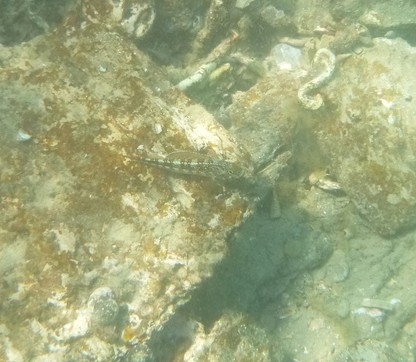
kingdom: Animalia
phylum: Chordata
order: Perciformes
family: Tripterygiidae
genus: Forsterygion
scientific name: Forsterygion varium
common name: Variable triplefin
